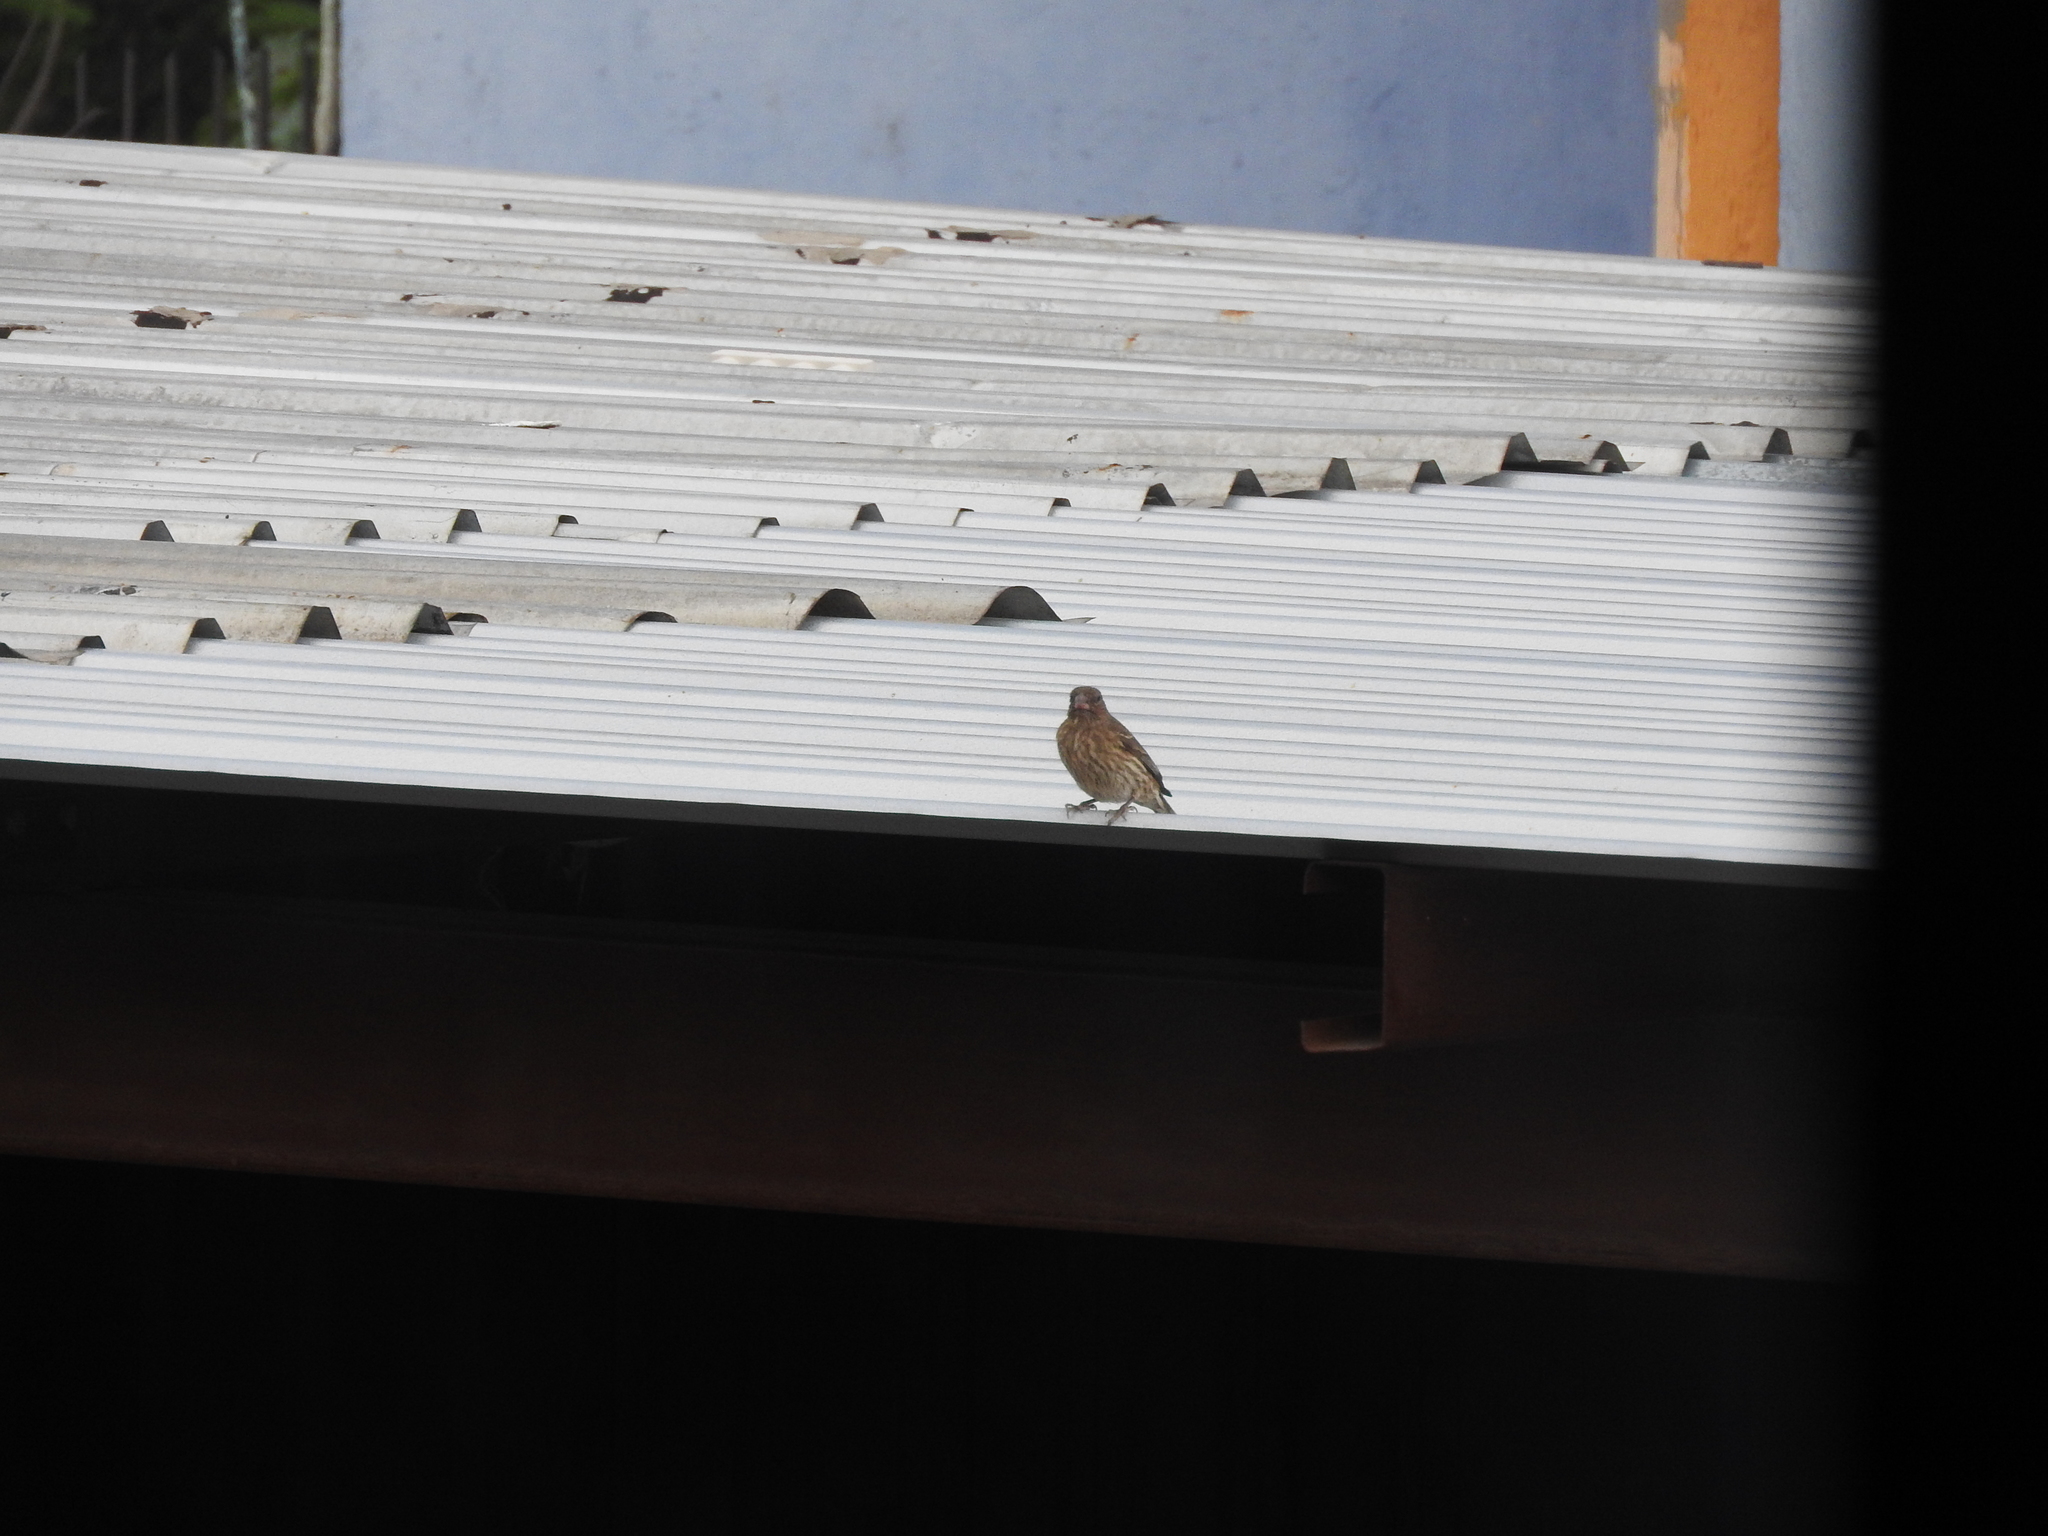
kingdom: Animalia
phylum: Chordata
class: Aves
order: Passeriformes
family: Fringillidae
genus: Haemorhous
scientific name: Haemorhous mexicanus
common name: House finch
